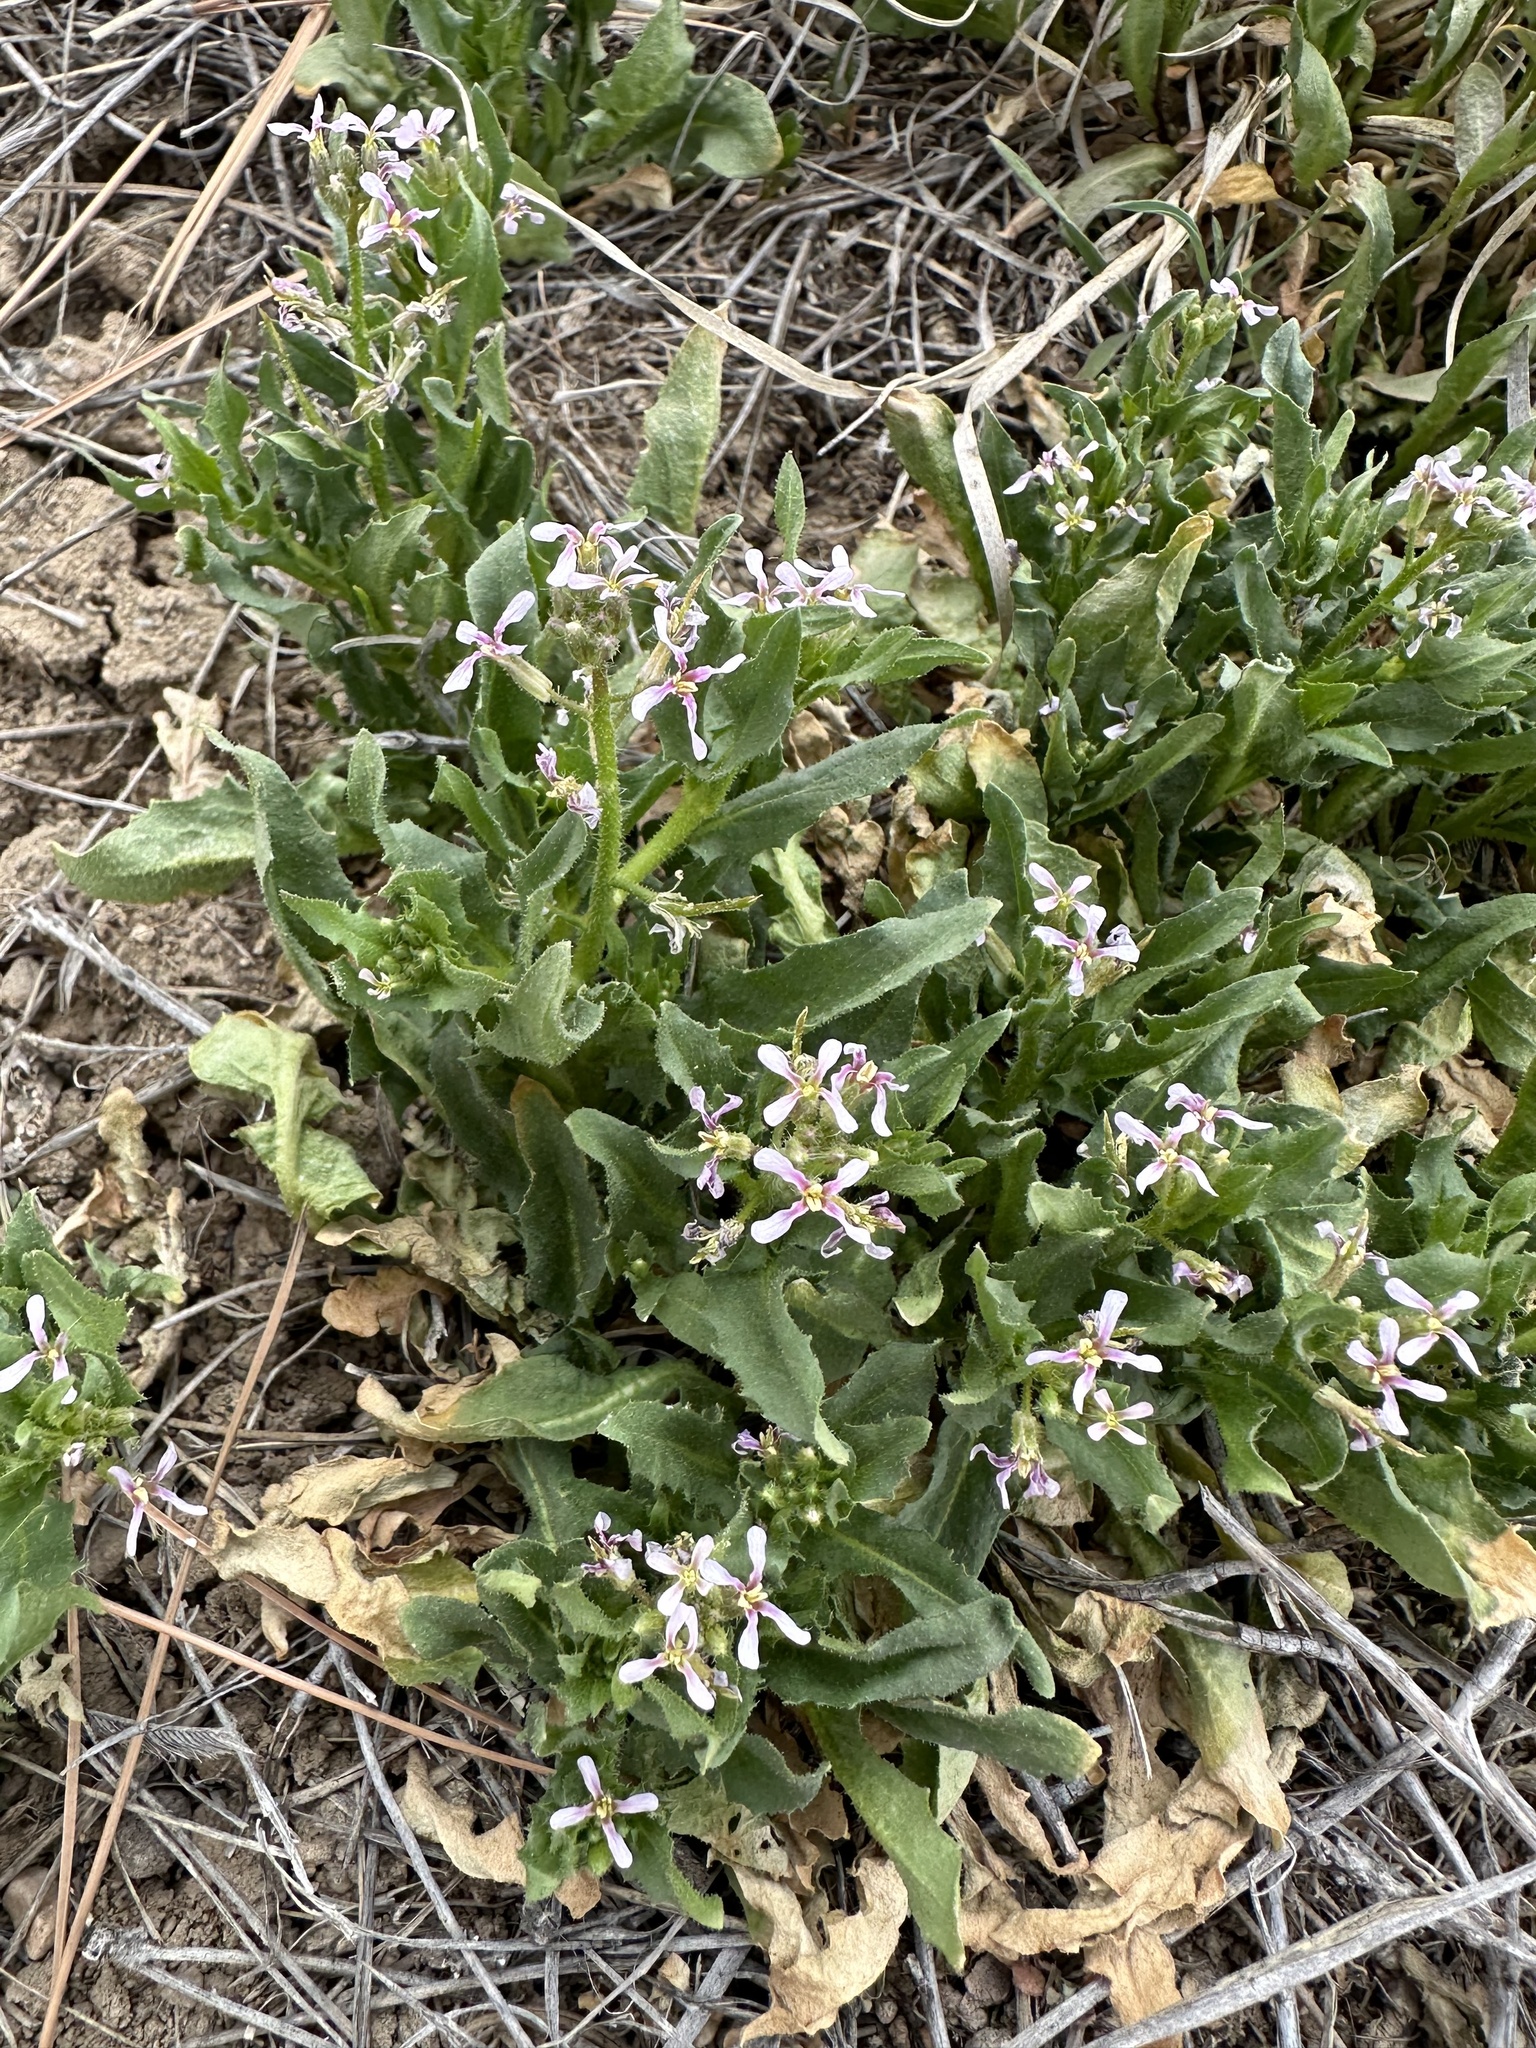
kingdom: Plantae
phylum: Tracheophyta
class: Magnoliopsida
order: Brassicales
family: Brassicaceae
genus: Chorispora
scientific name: Chorispora tenella
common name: Crossflower
